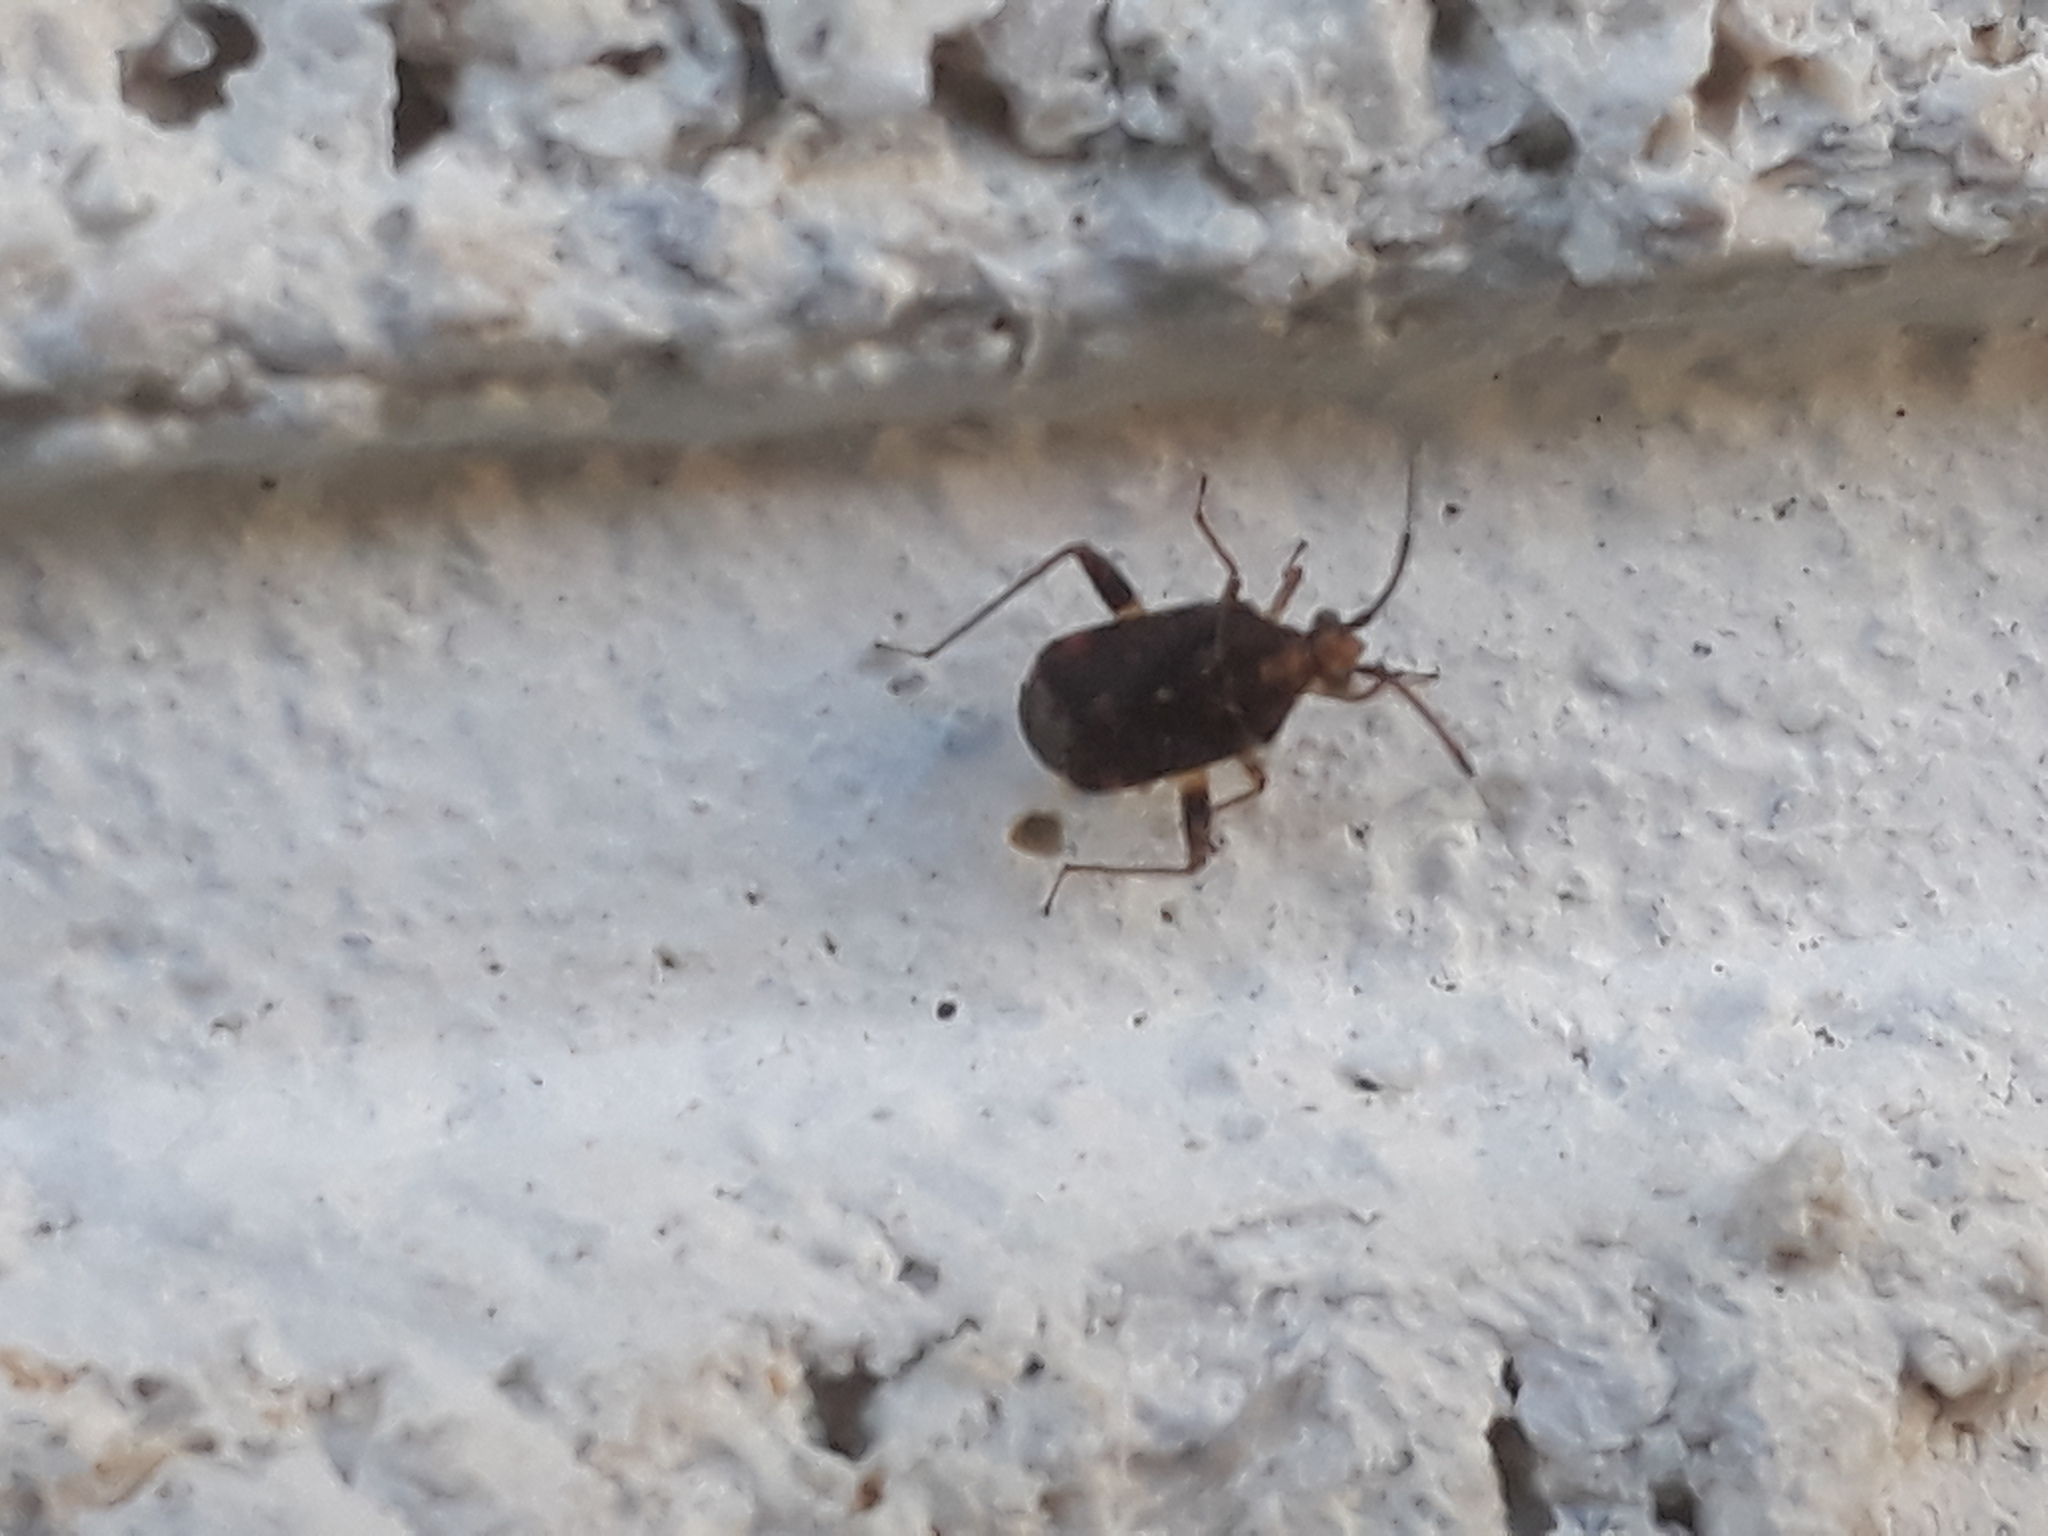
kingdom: Animalia
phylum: Arthropoda
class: Insecta
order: Hemiptera
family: Miridae
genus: Sidnia
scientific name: Sidnia kinbergi
